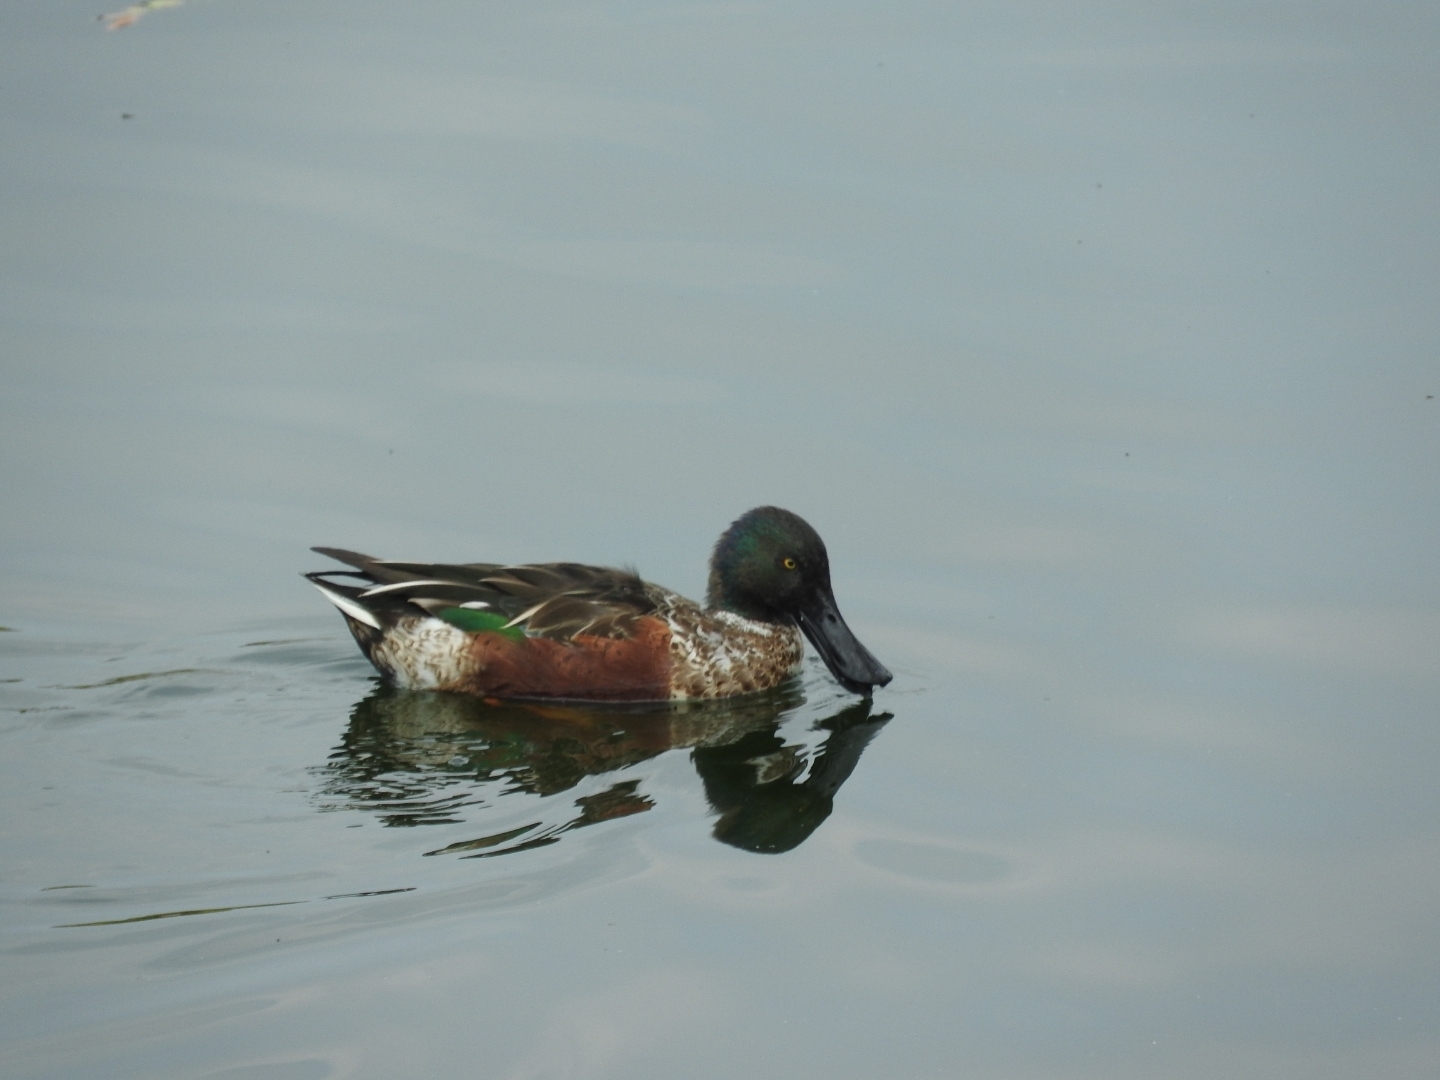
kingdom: Animalia
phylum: Chordata
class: Aves
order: Anseriformes
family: Anatidae
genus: Spatula
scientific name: Spatula clypeata
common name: Northern shoveler
